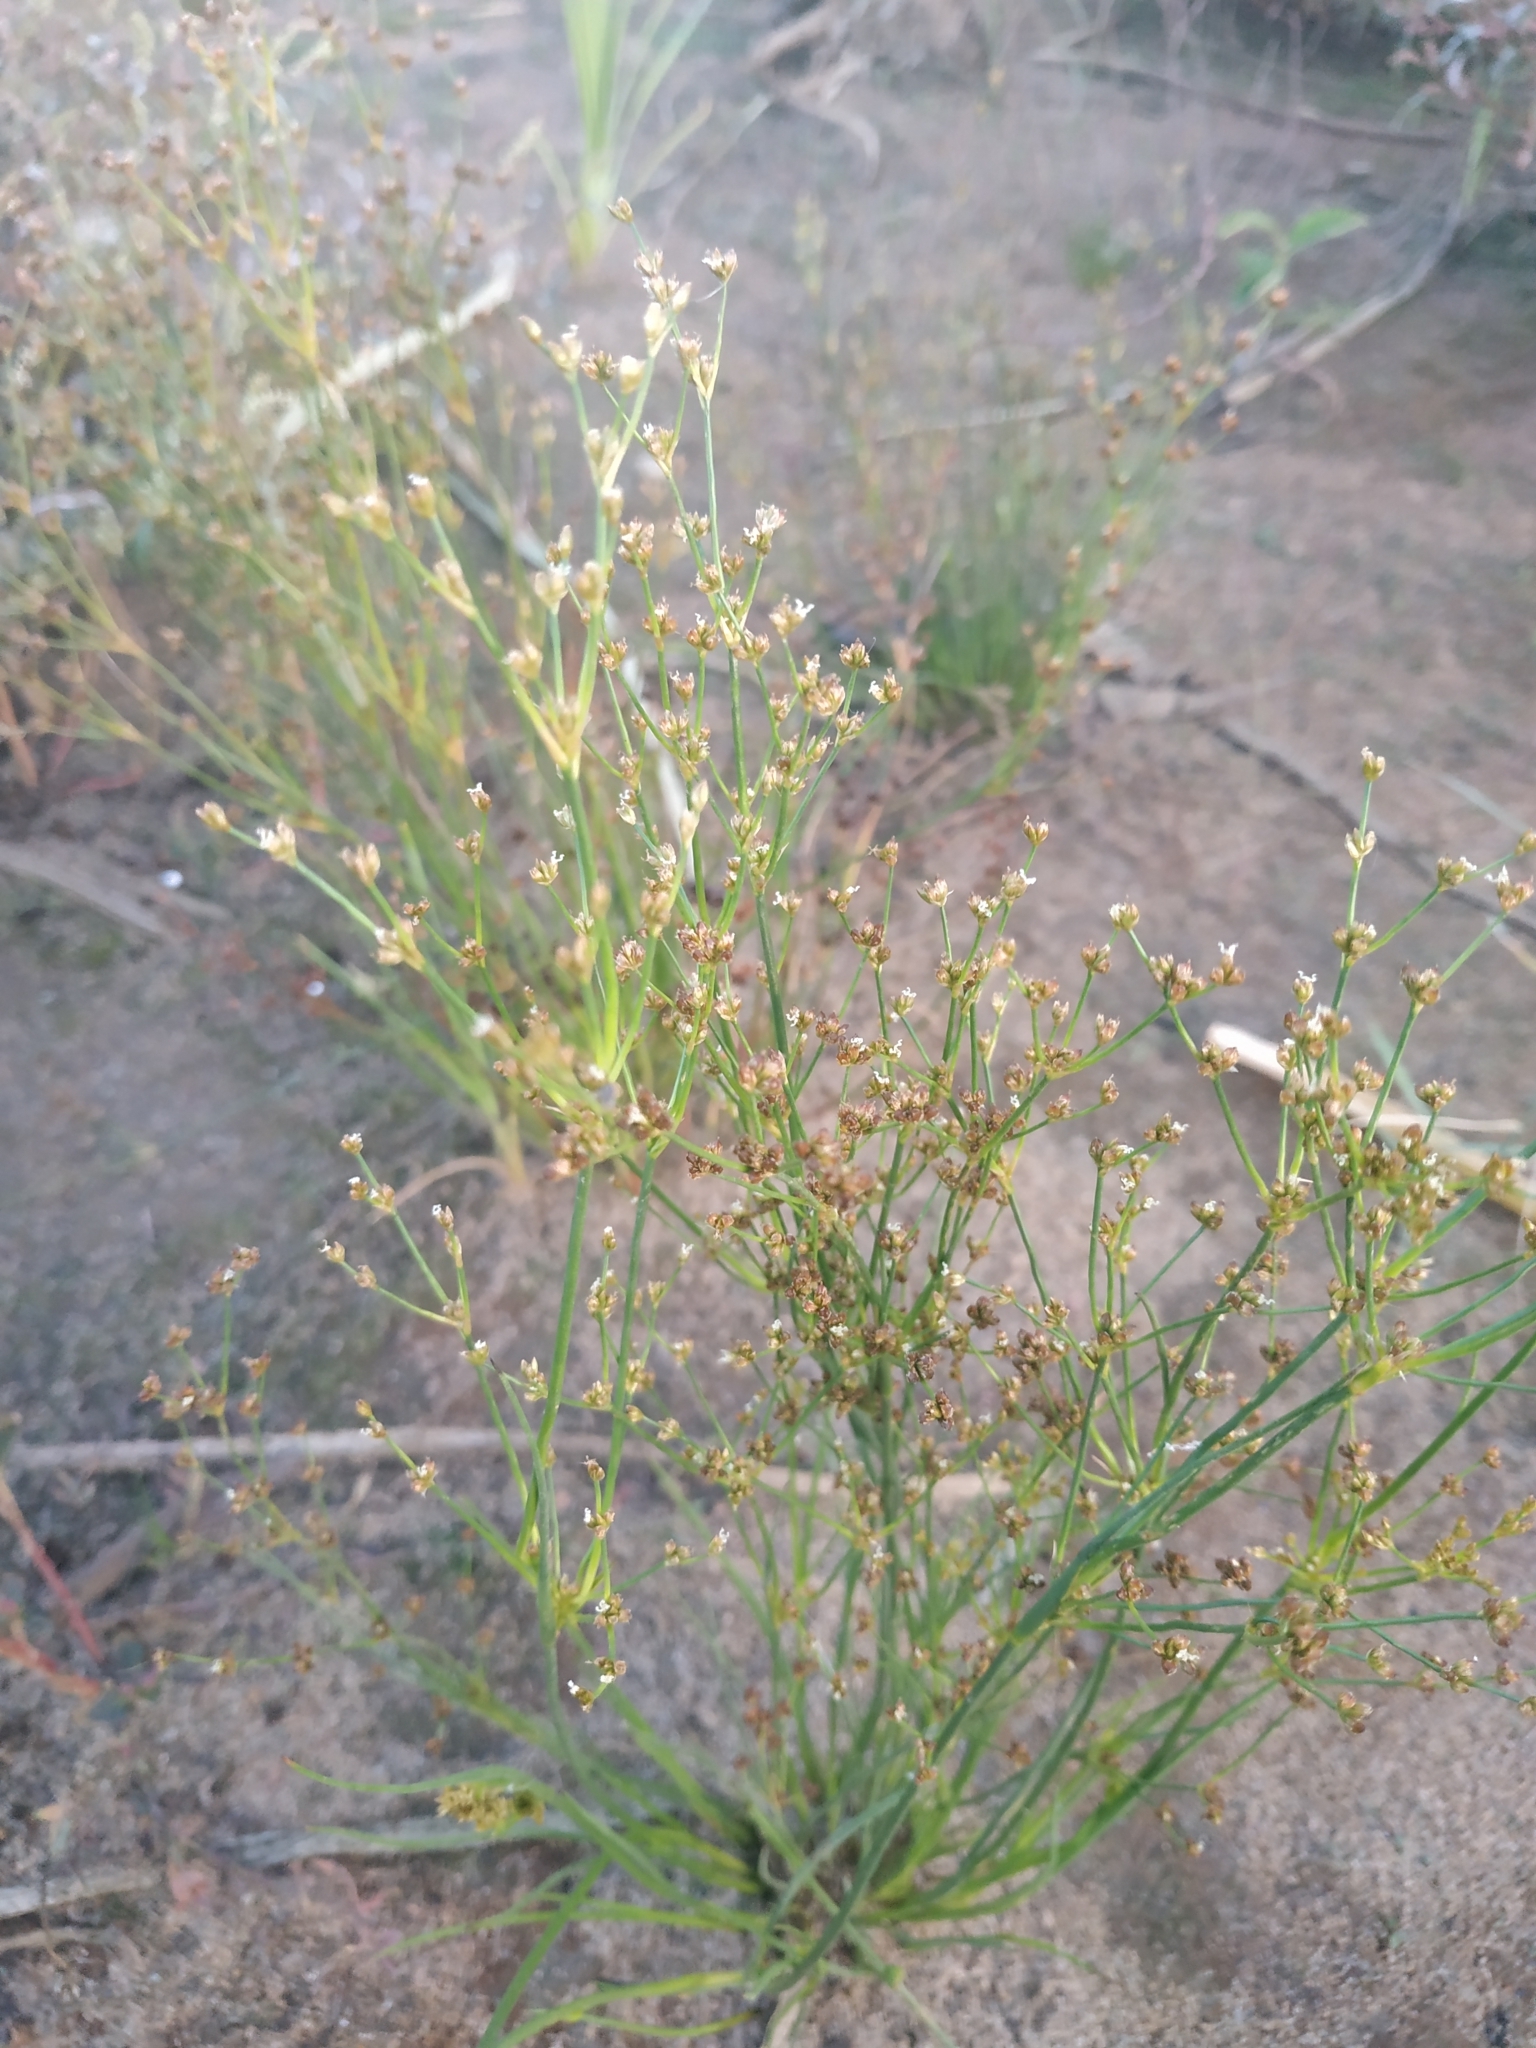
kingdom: Plantae
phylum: Tracheophyta
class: Liliopsida
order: Poales
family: Juncaceae
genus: Juncus
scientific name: Juncus articulatus
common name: Jointed rush
